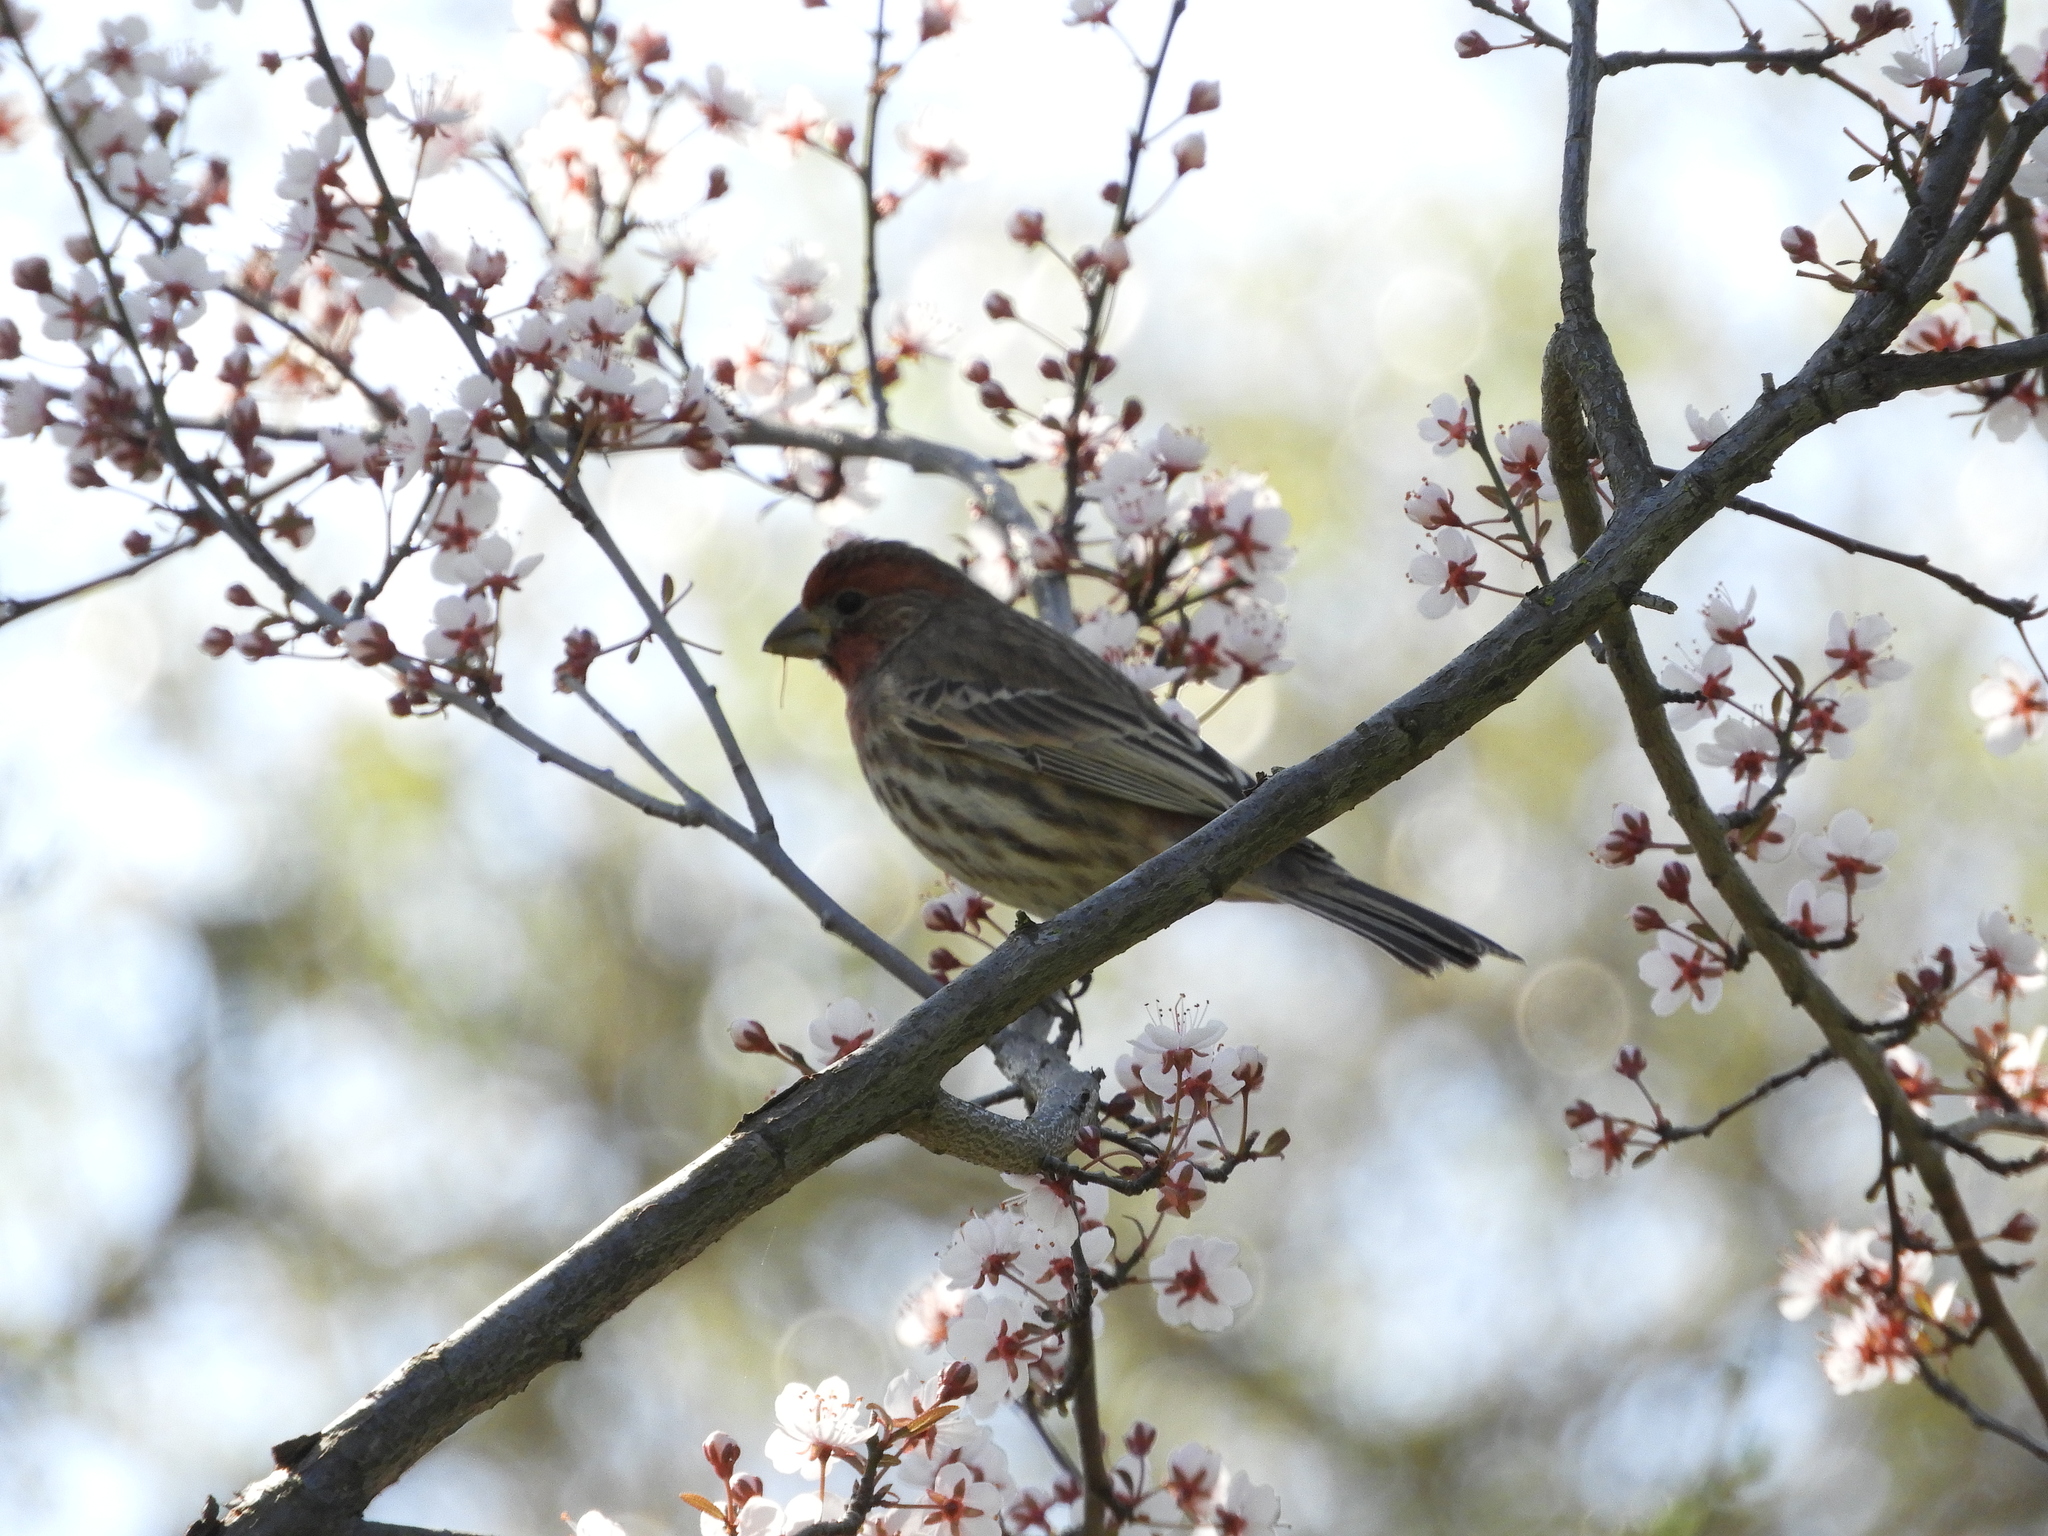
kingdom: Animalia
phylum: Chordata
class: Aves
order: Passeriformes
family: Fringillidae
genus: Haemorhous
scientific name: Haemorhous mexicanus
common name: House finch
